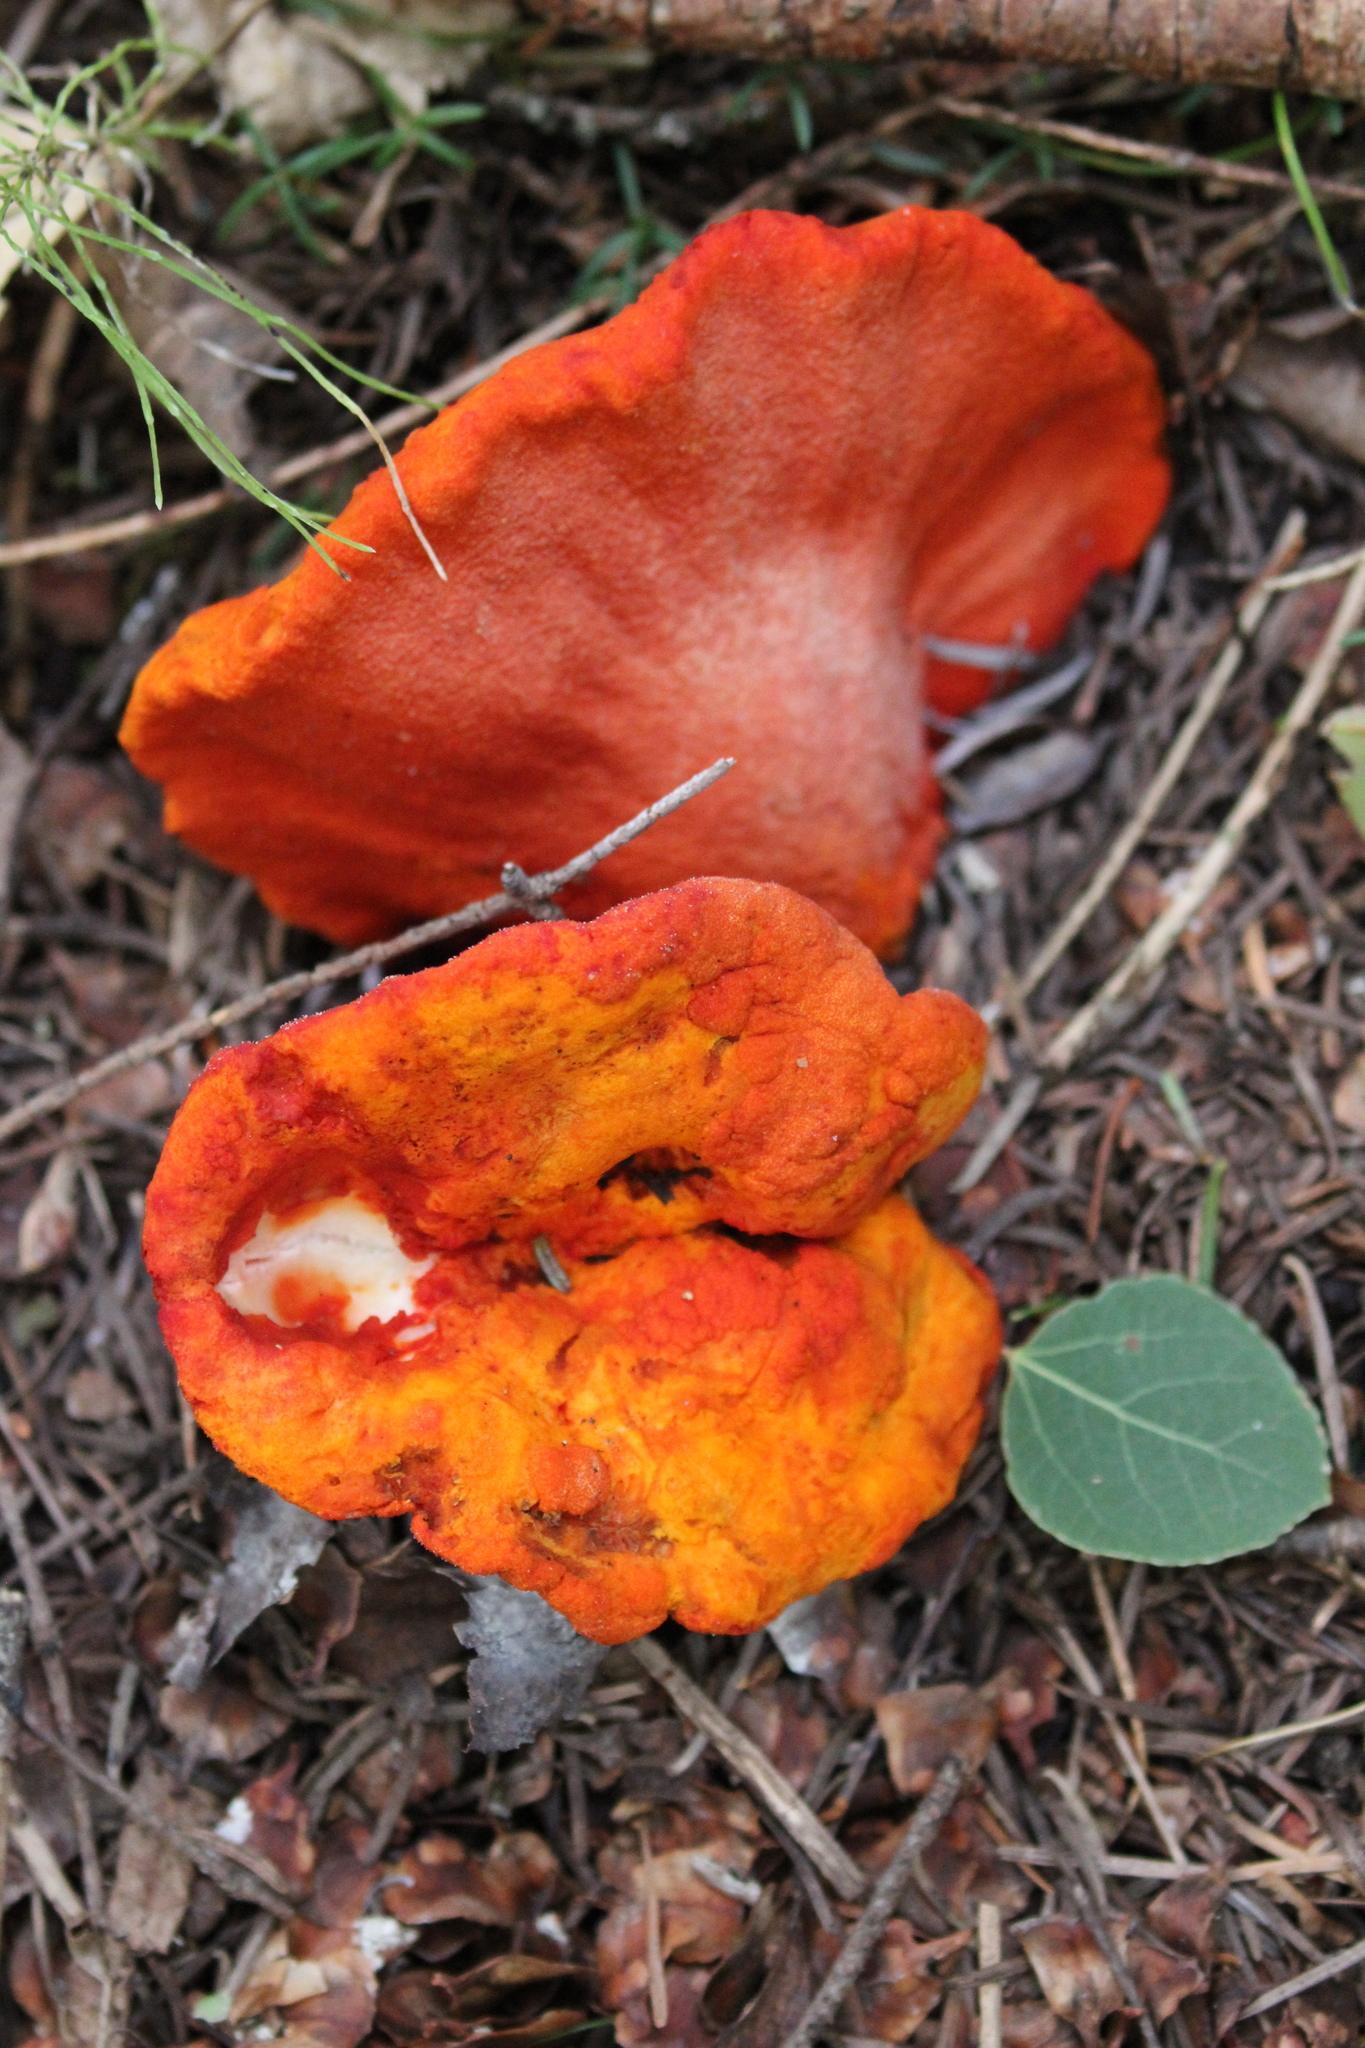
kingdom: Fungi
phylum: Ascomycota
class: Sordariomycetes
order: Hypocreales
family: Hypocreaceae
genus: Hypomyces
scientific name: Hypomyces lactifluorum
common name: Lobster mushroom
